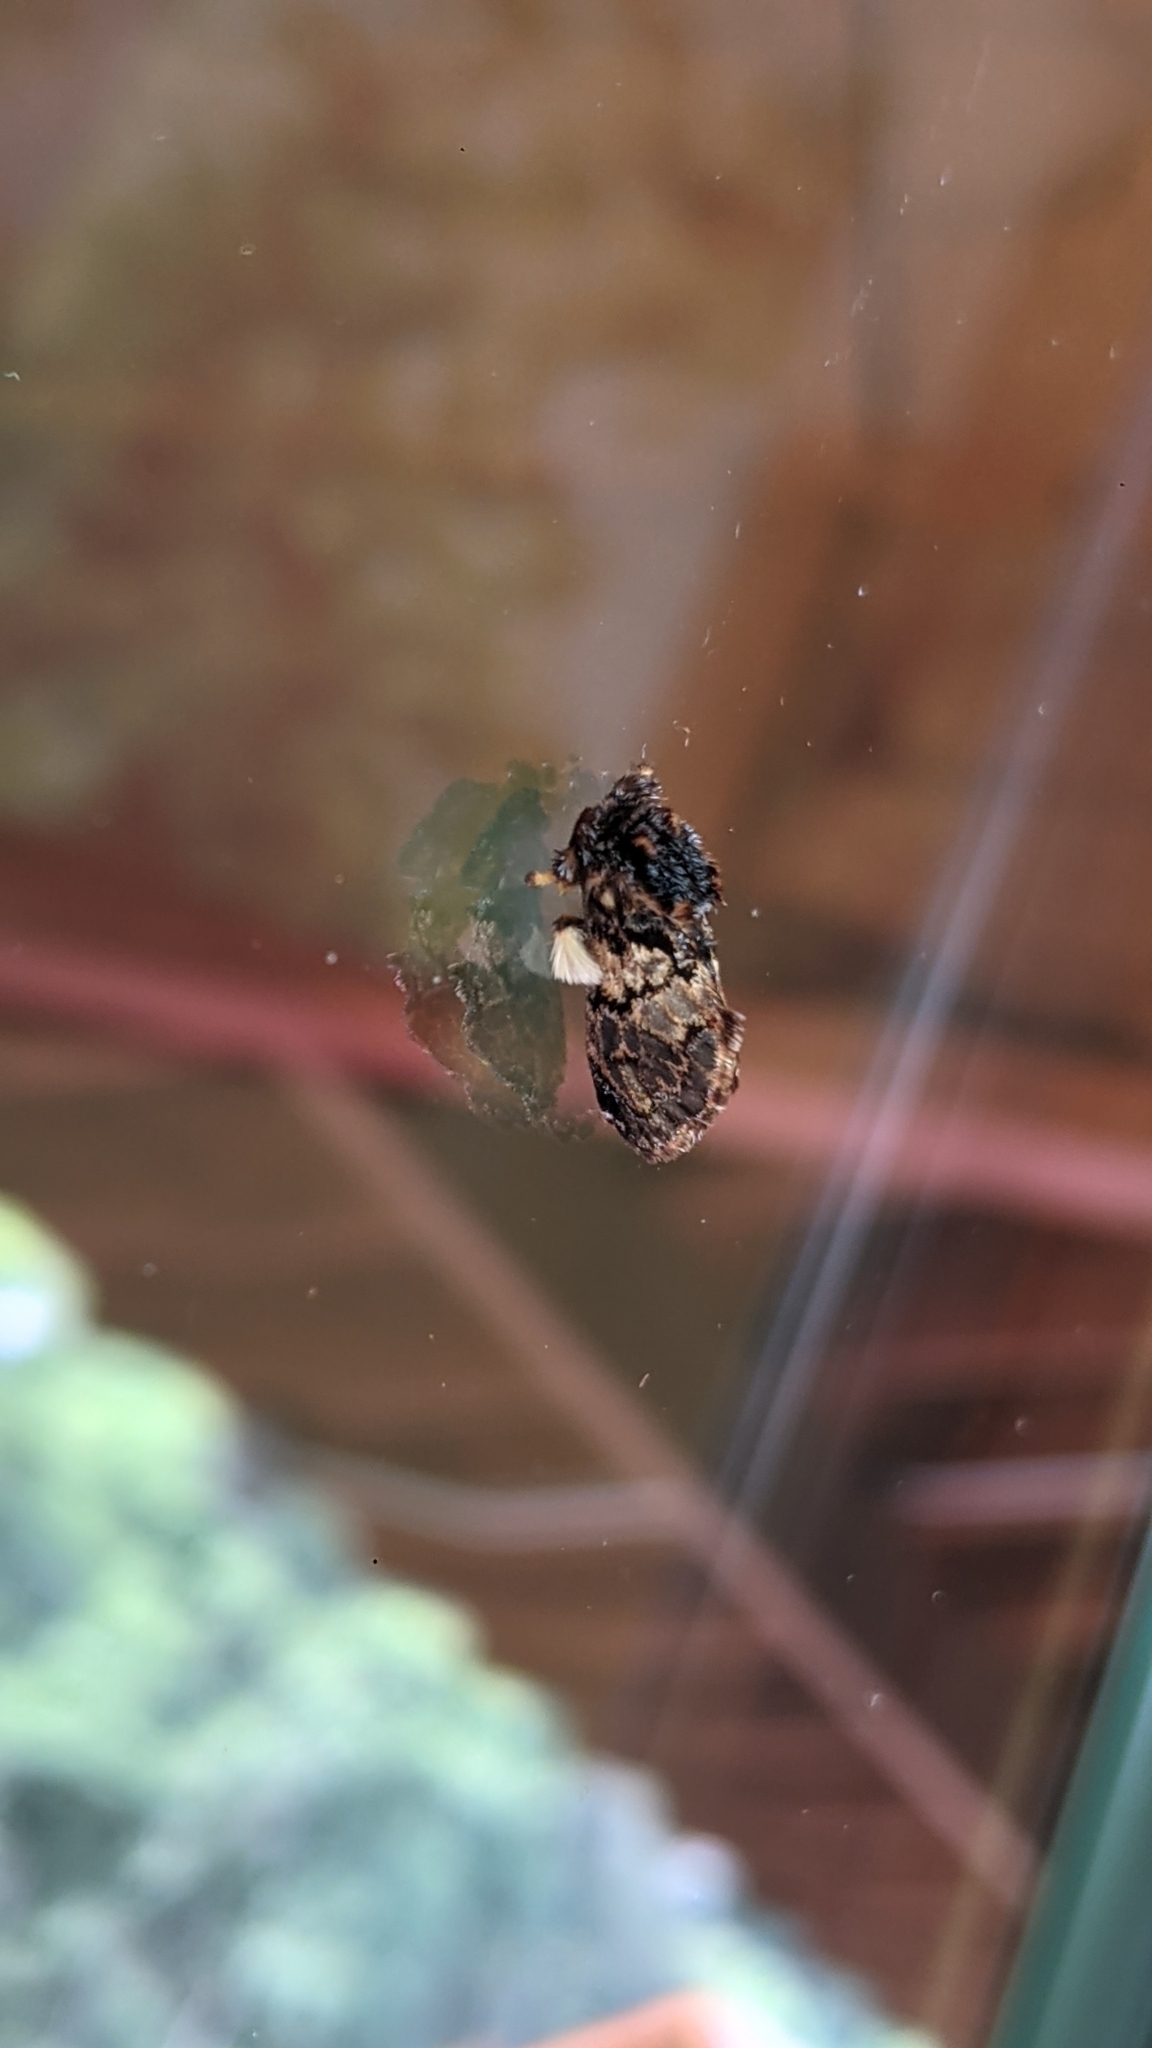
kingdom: Animalia
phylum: Arthropoda
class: Insecta
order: Lepidoptera
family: Limacodidae
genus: Phobetron
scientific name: Phobetron pithecium
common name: Hag moth
